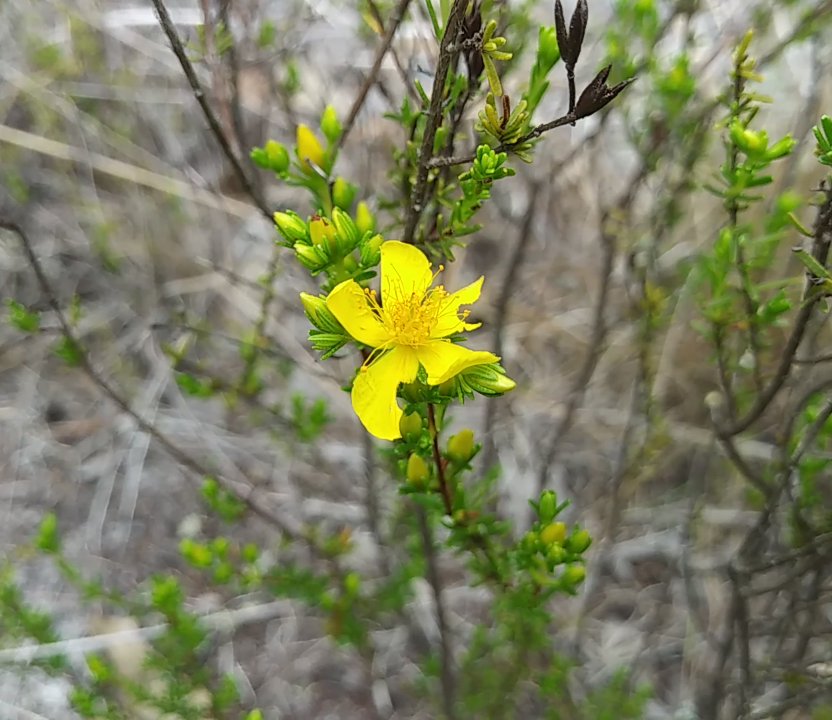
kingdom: Plantae
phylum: Tracheophyta
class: Magnoliopsida
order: Malpighiales
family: Hypericaceae
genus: Hypericum
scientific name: Hypericum tenuifolium
